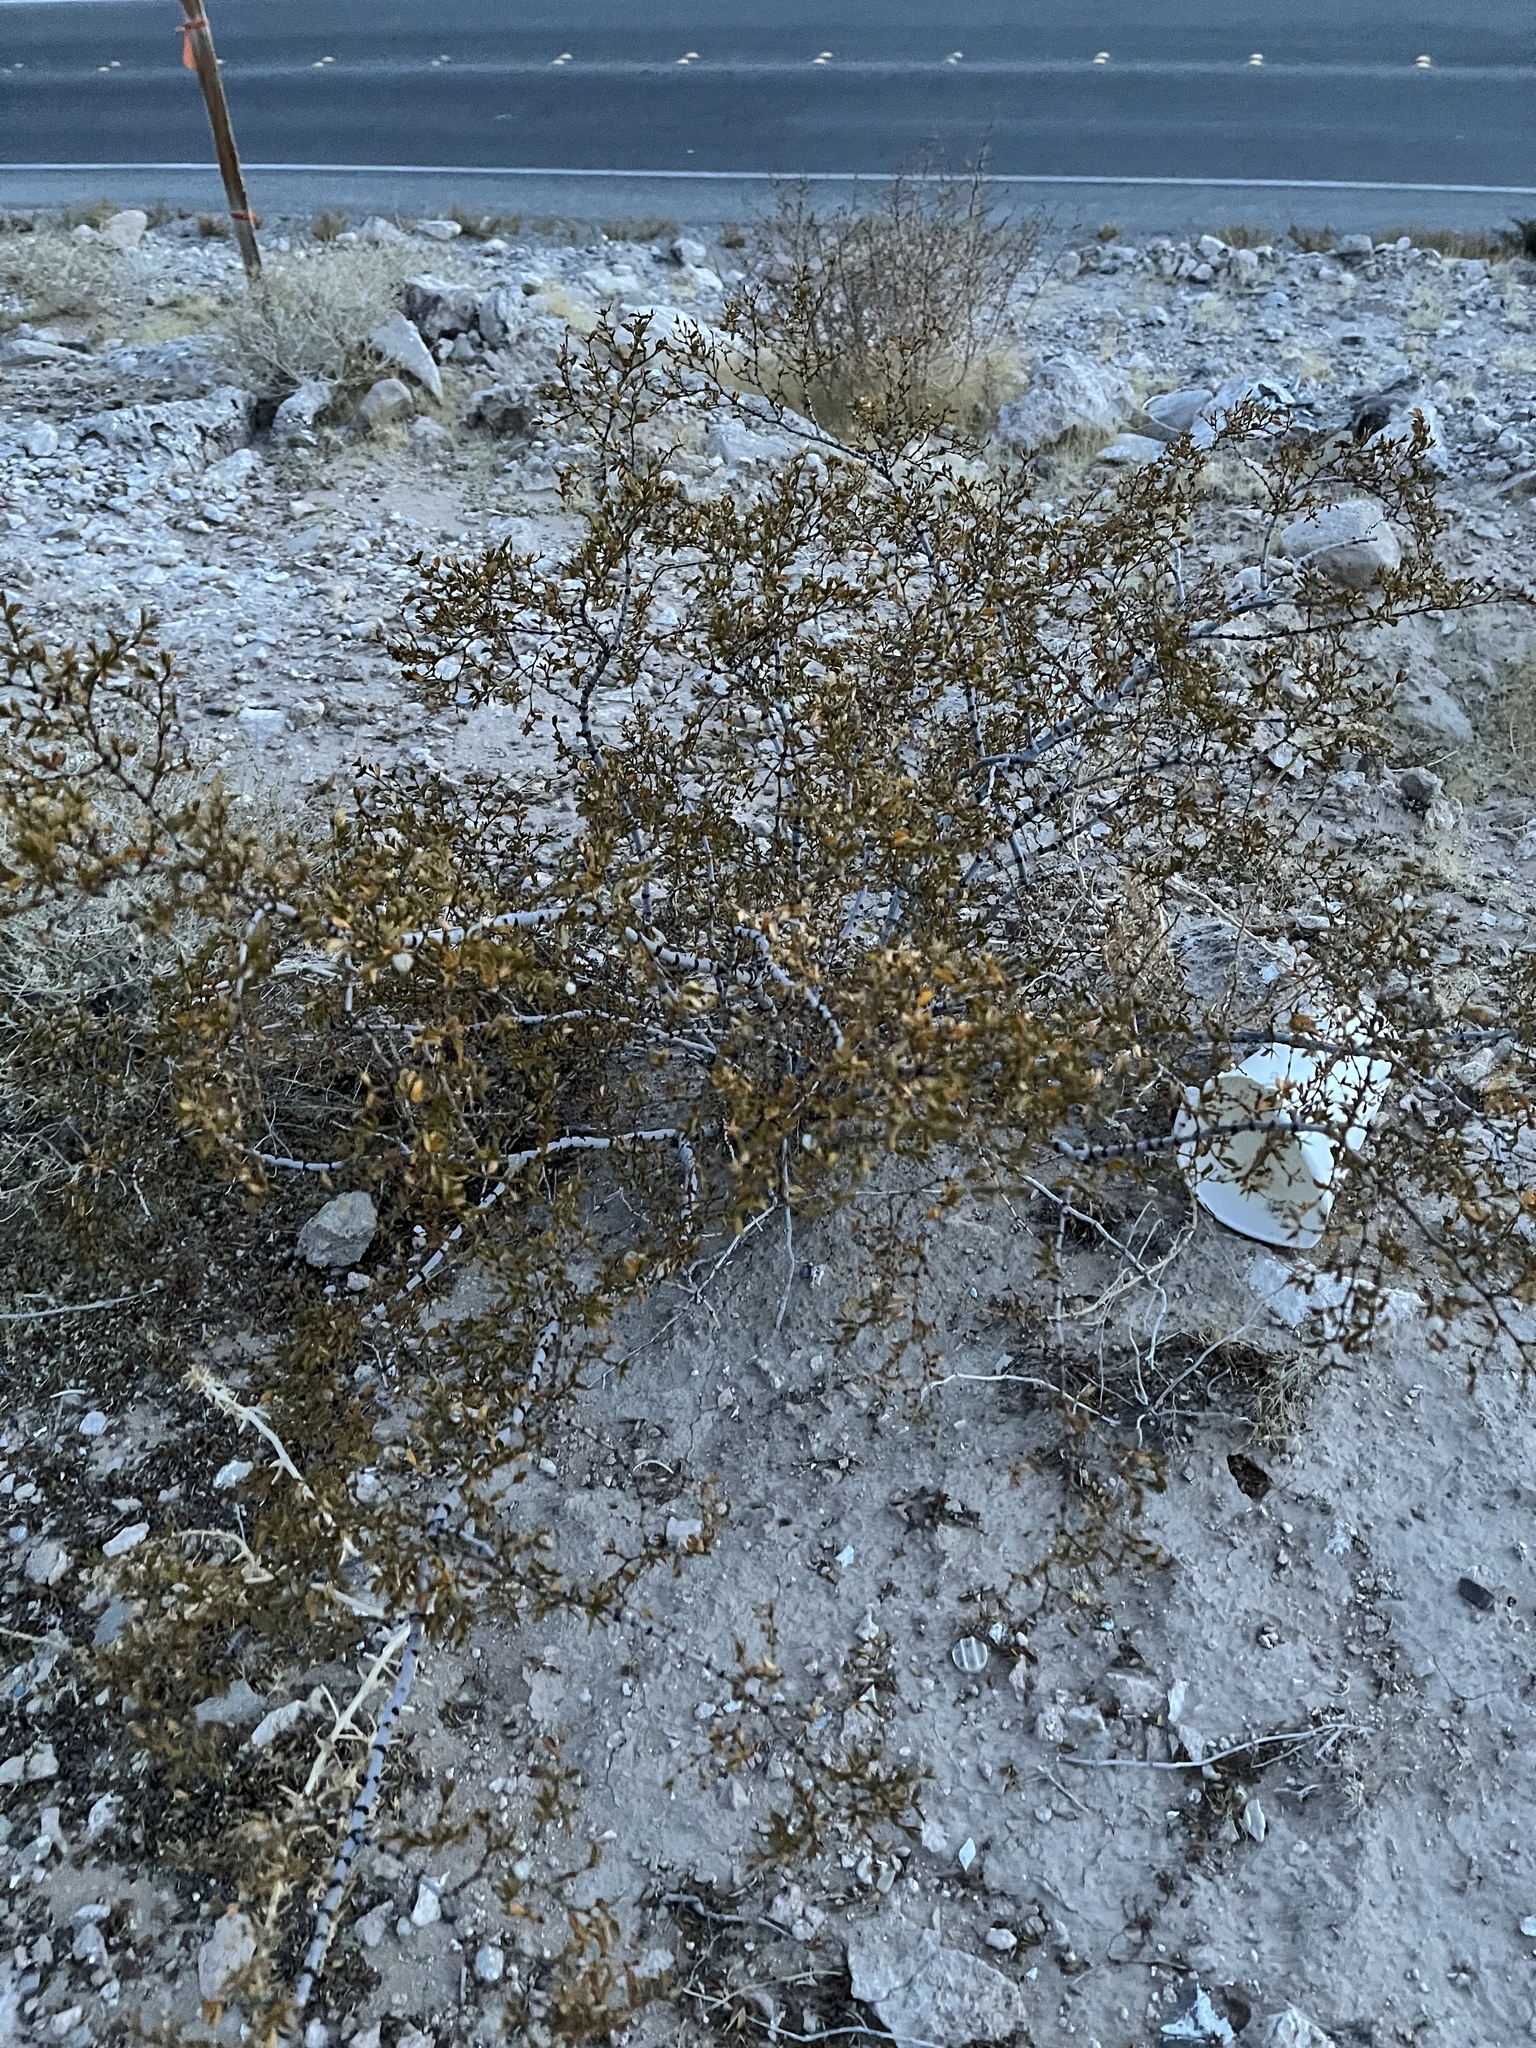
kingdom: Plantae
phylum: Tracheophyta
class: Magnoliopsida
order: Zygophyllales
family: Zygophyllaceae
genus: Larrea
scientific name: Larrea tridentata
